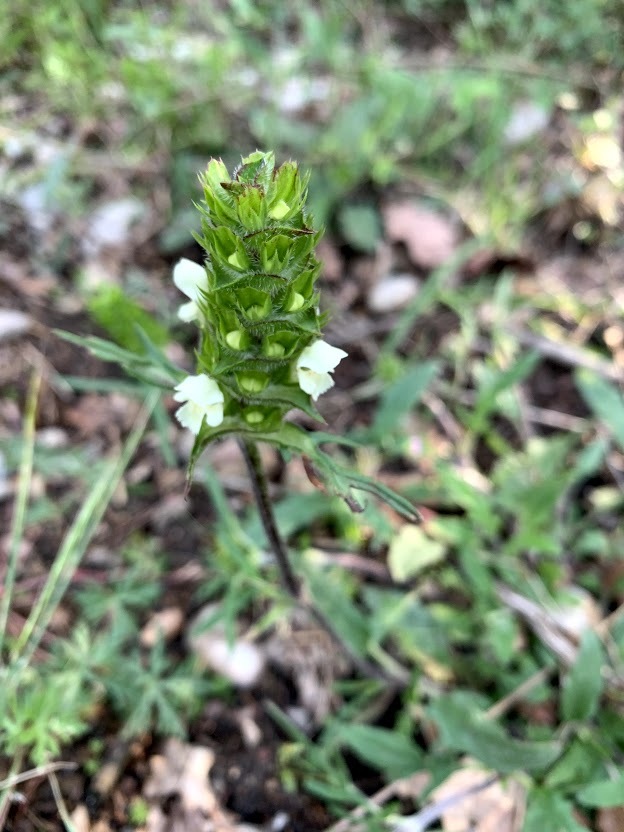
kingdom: Plantae
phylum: Tracheophyta
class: Magnoliopsida
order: Lamiales
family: Lamiaceae
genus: Prunella
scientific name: Prunella laciniata
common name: Cut-leaved selfheal
